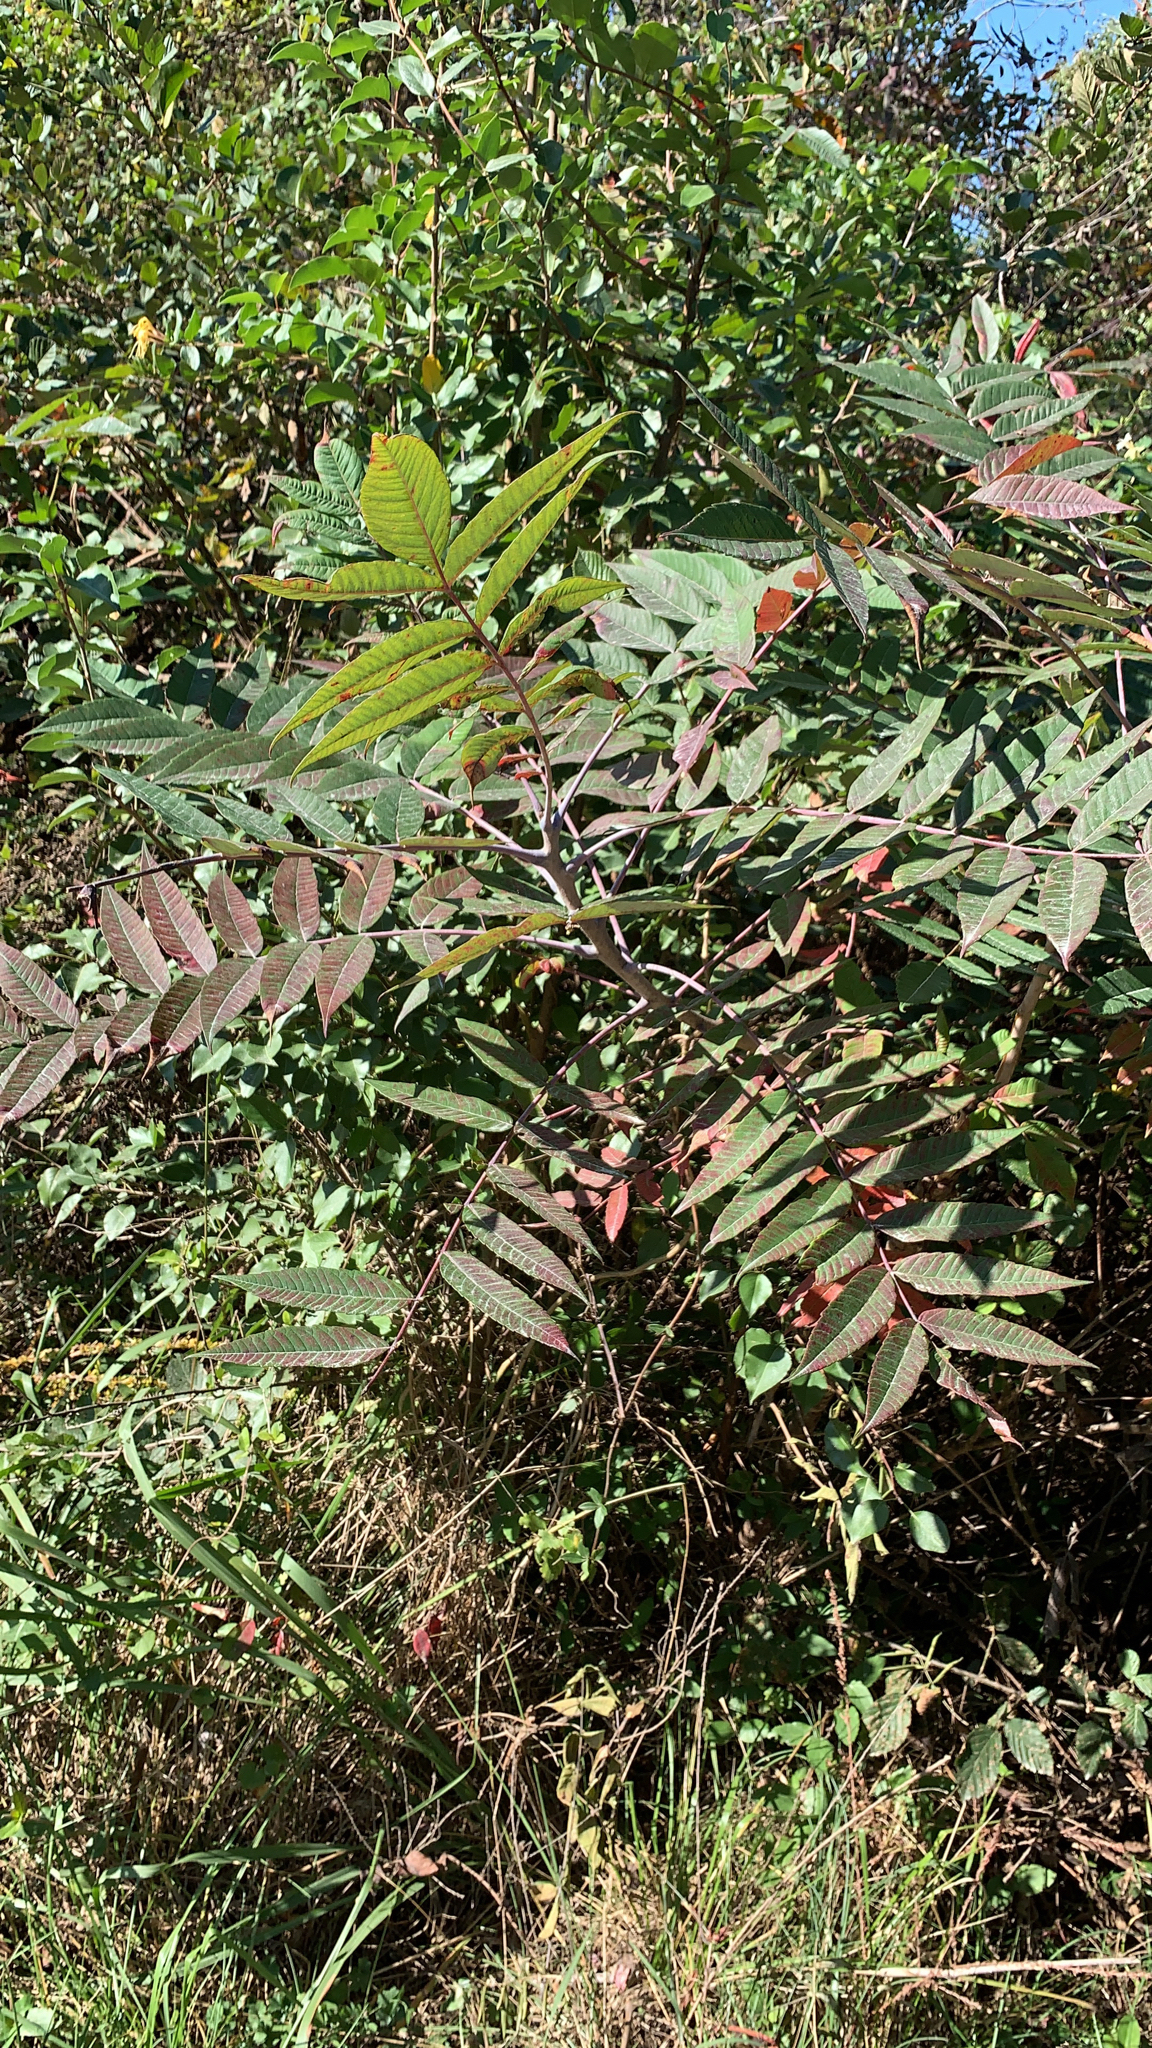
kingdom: Plantae
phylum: Tracheophyta
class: Magnoliopsida
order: Sapindales
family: Anacardiaceae
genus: Rhus
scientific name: Rhus glabra
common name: Scarlet sumac
